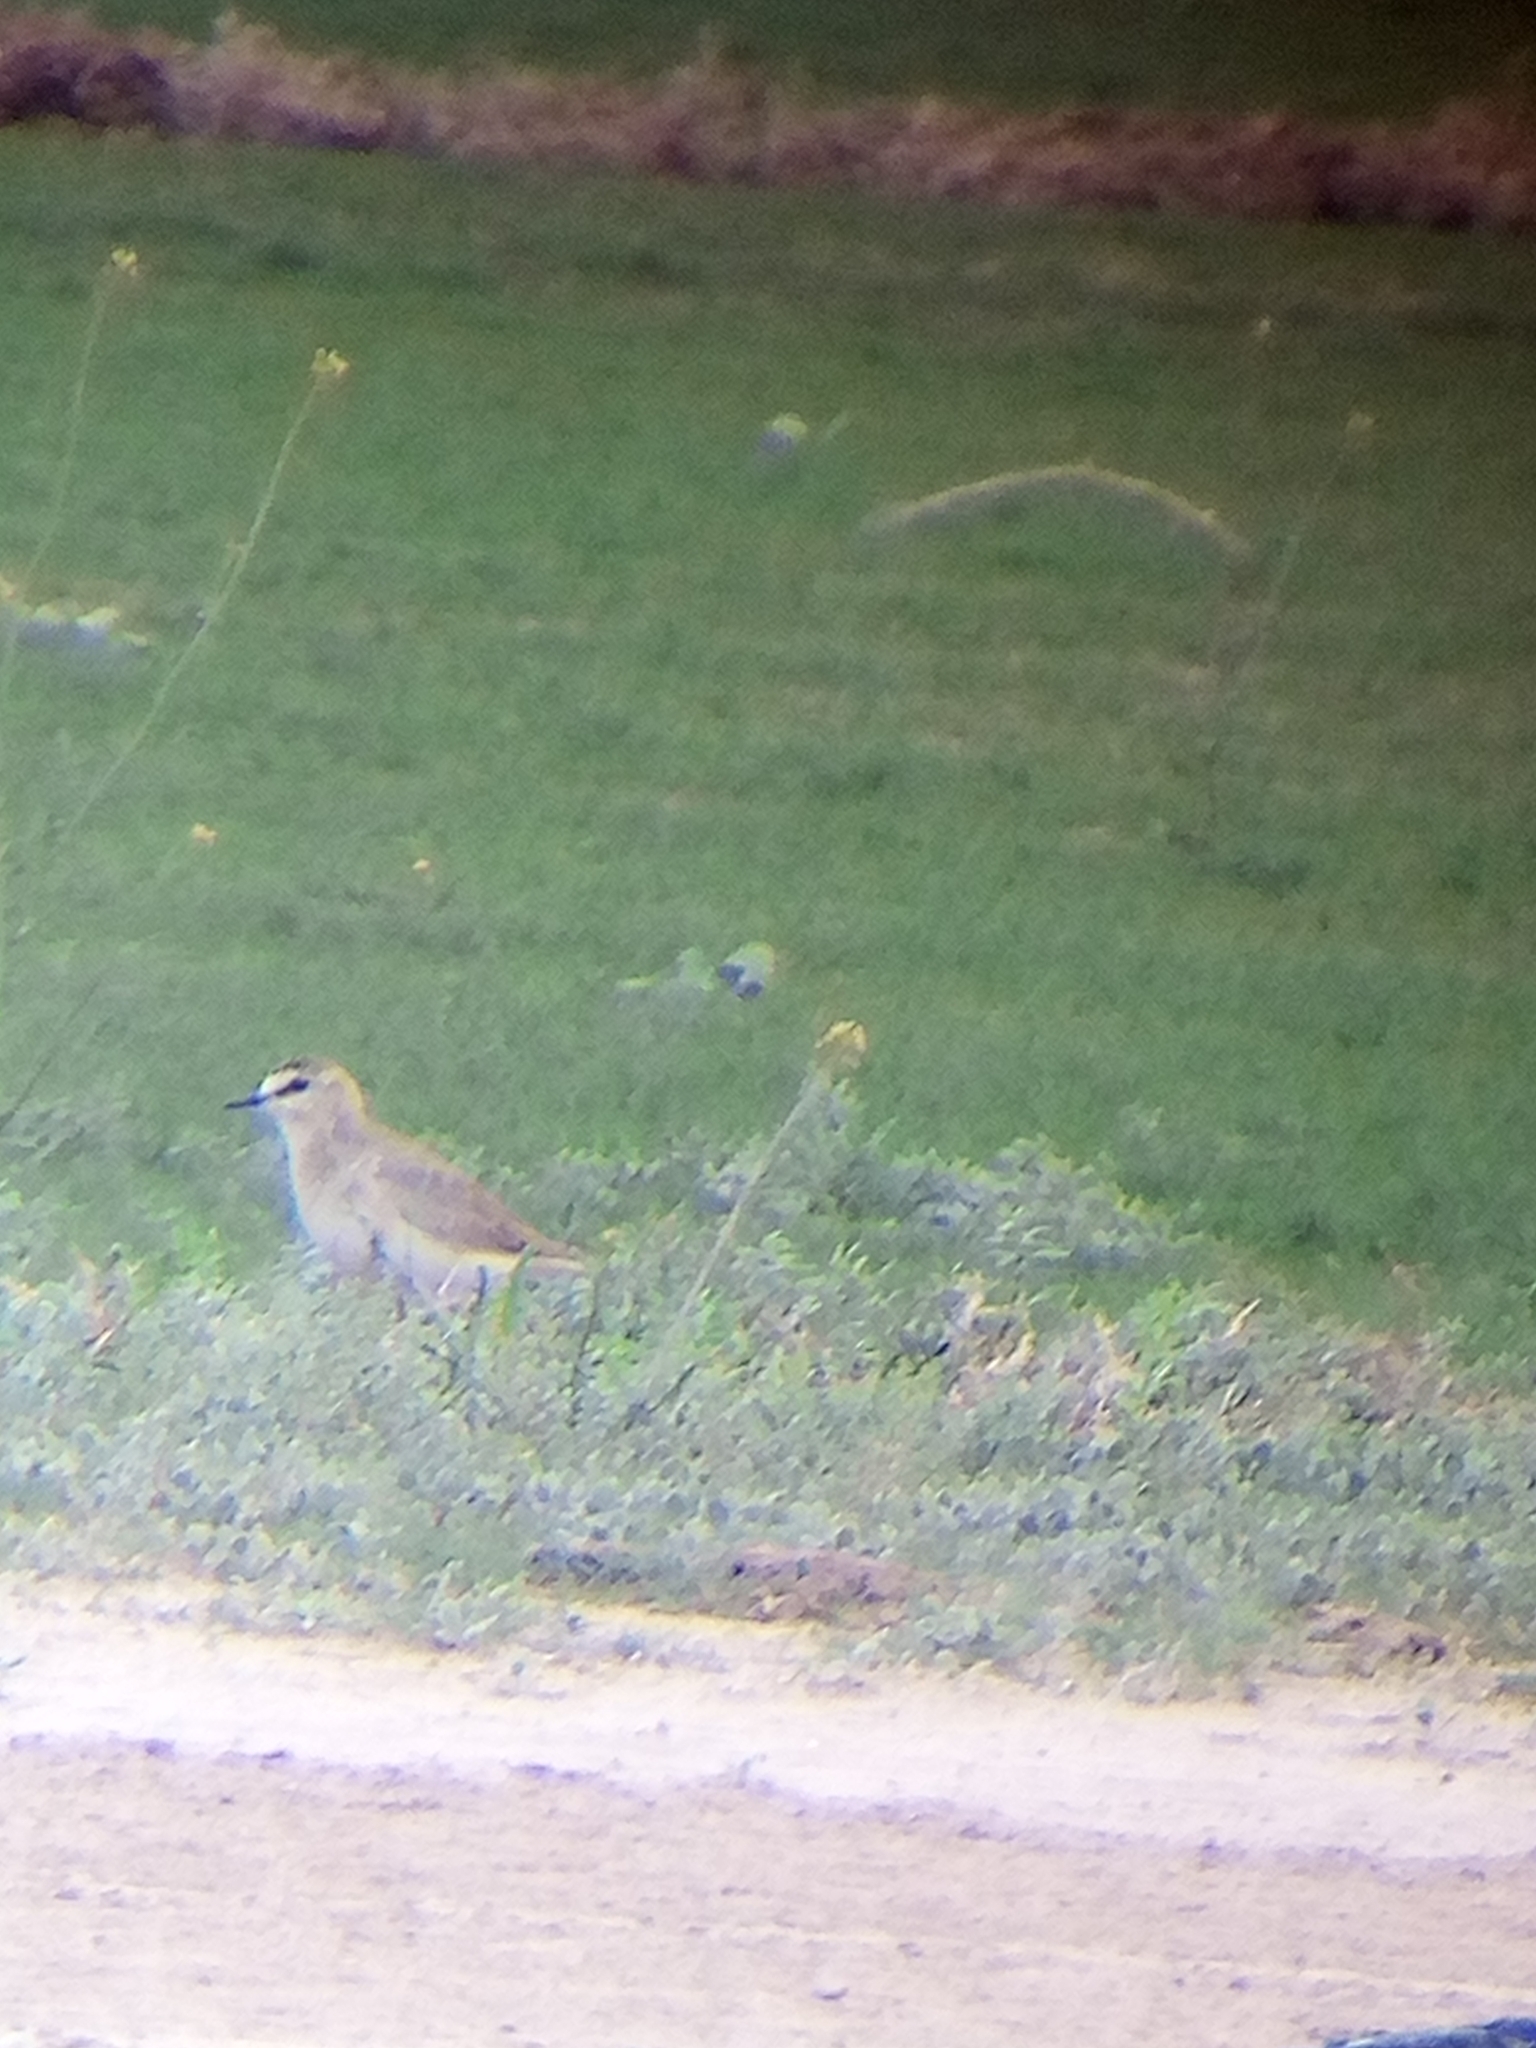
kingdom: Animalia
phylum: Chordata
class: Aves
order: Charadriiformes
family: Charadriidae
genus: Anarhynchus
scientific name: Anarhynchus
